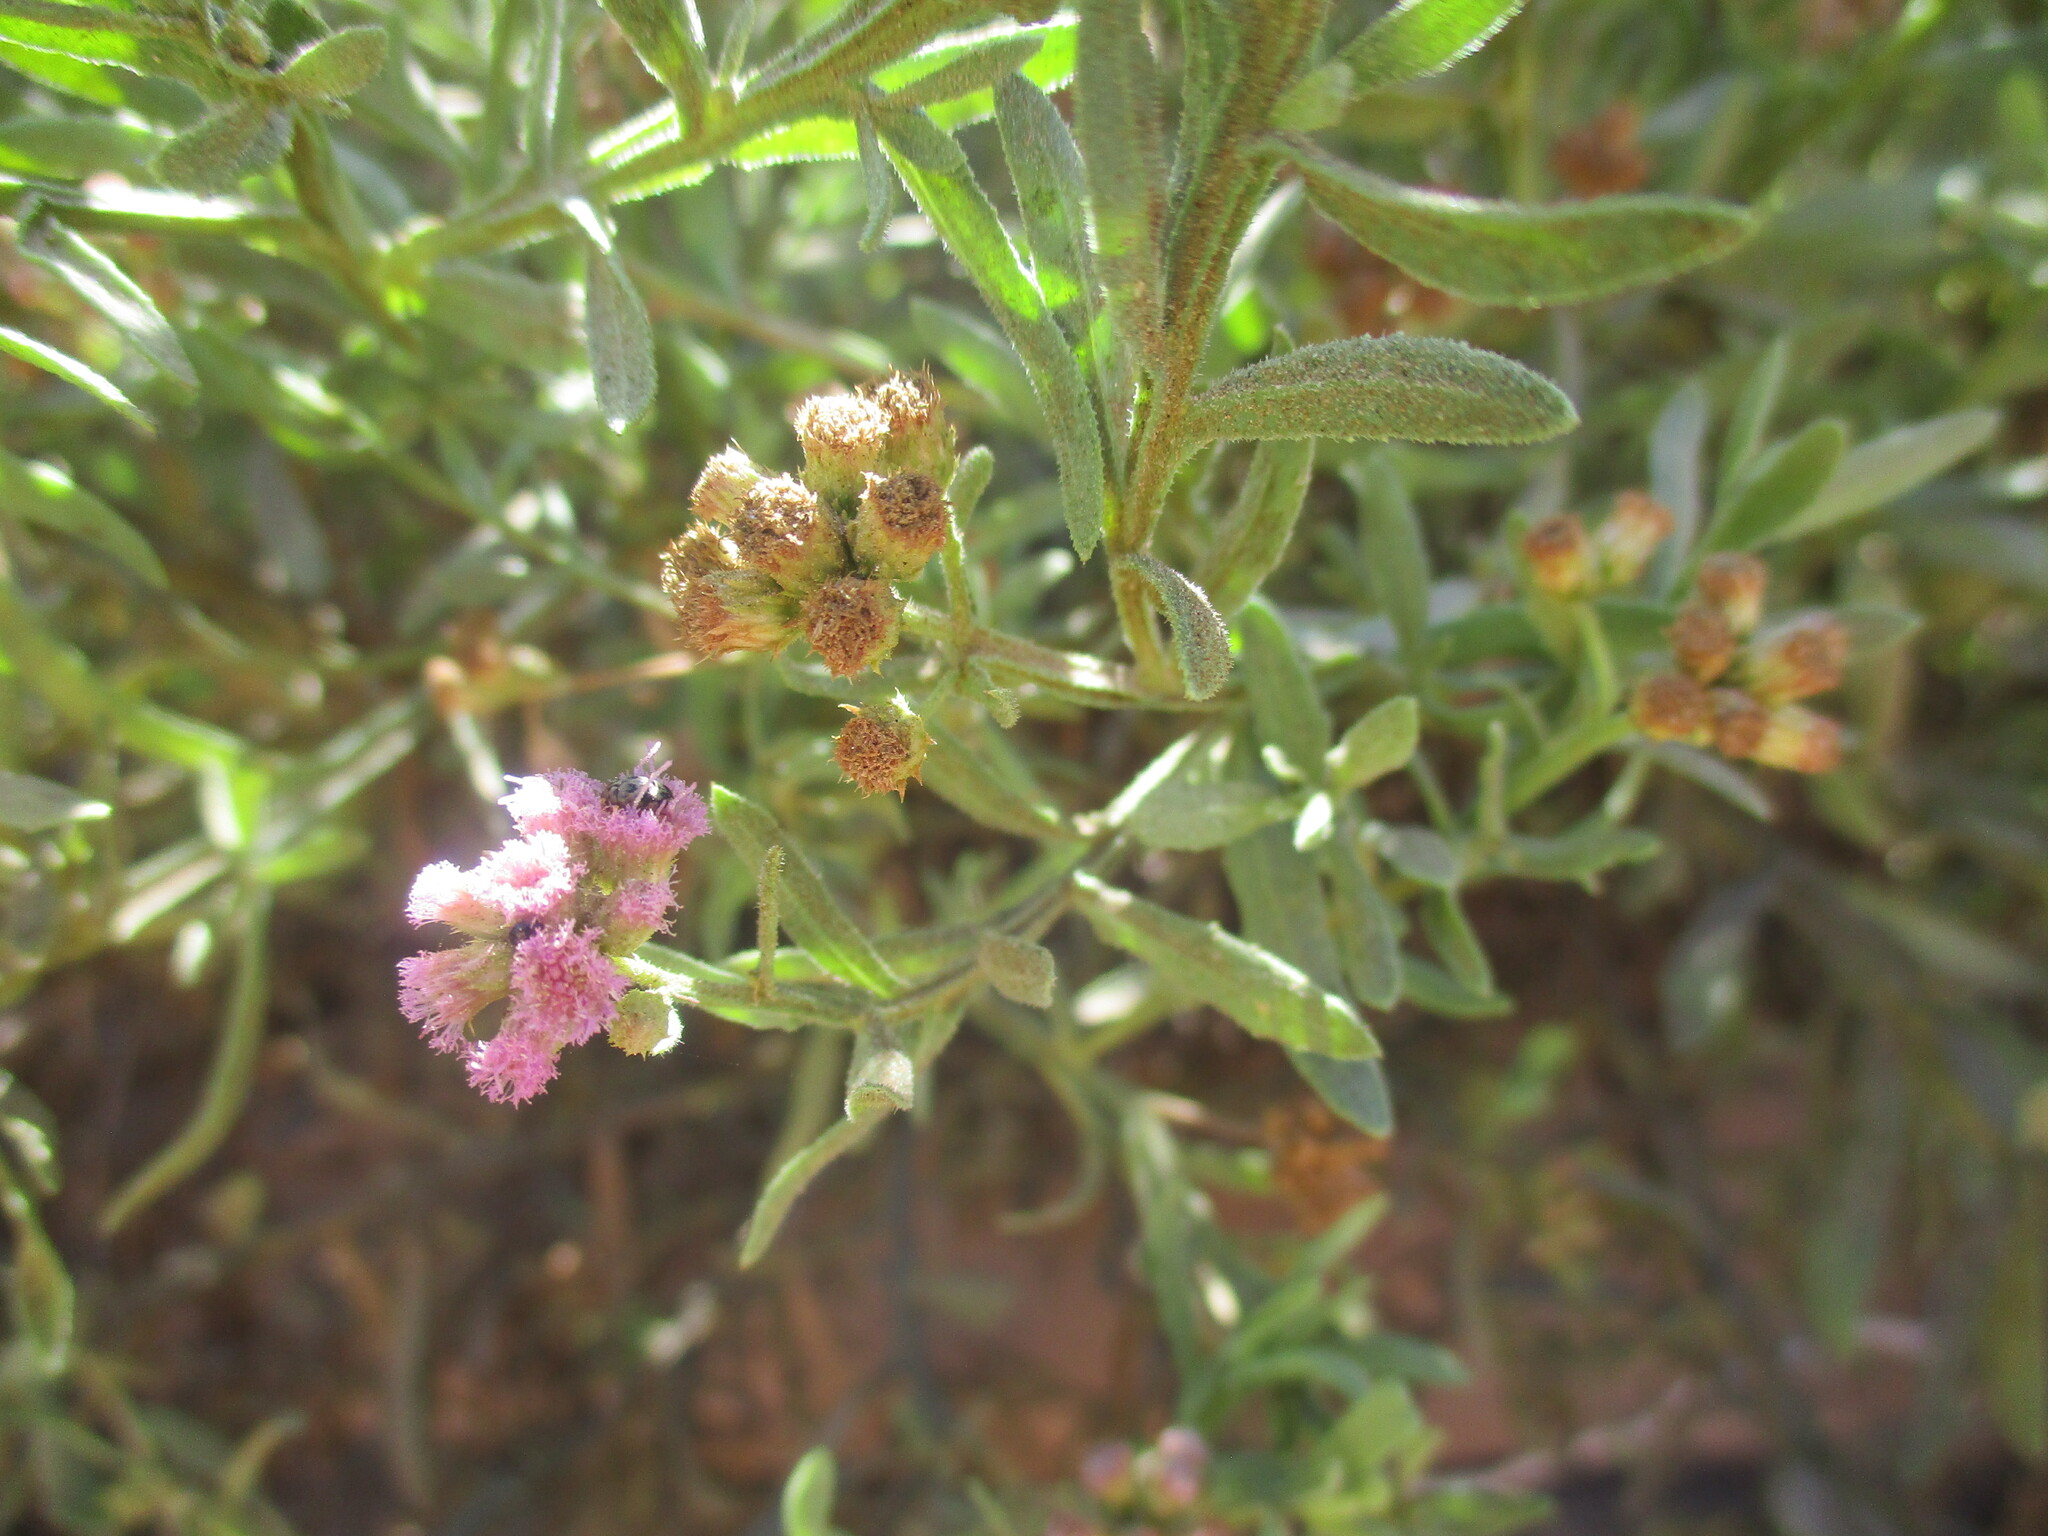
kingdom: Plantae
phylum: Tracheophyta
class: Magnoliopsida
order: Asterales
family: Asteraceae
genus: Litogyne
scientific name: Litogyne gariepina
